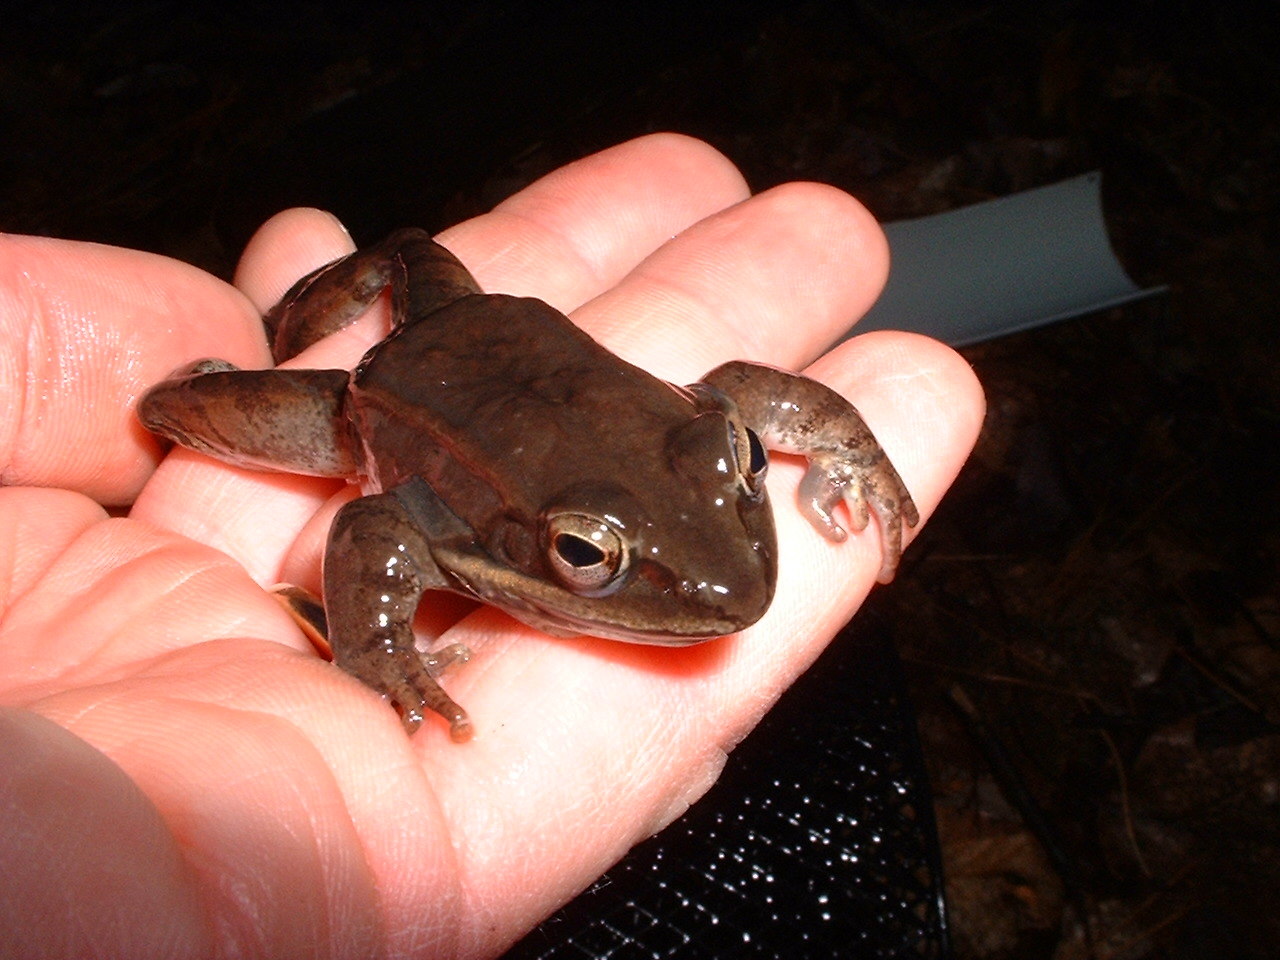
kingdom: Animalia
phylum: Chordata
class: Amphibia
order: Anura
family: Ranidae
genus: Lithobates
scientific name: Lithobates sylvaticus
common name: Wood frog
